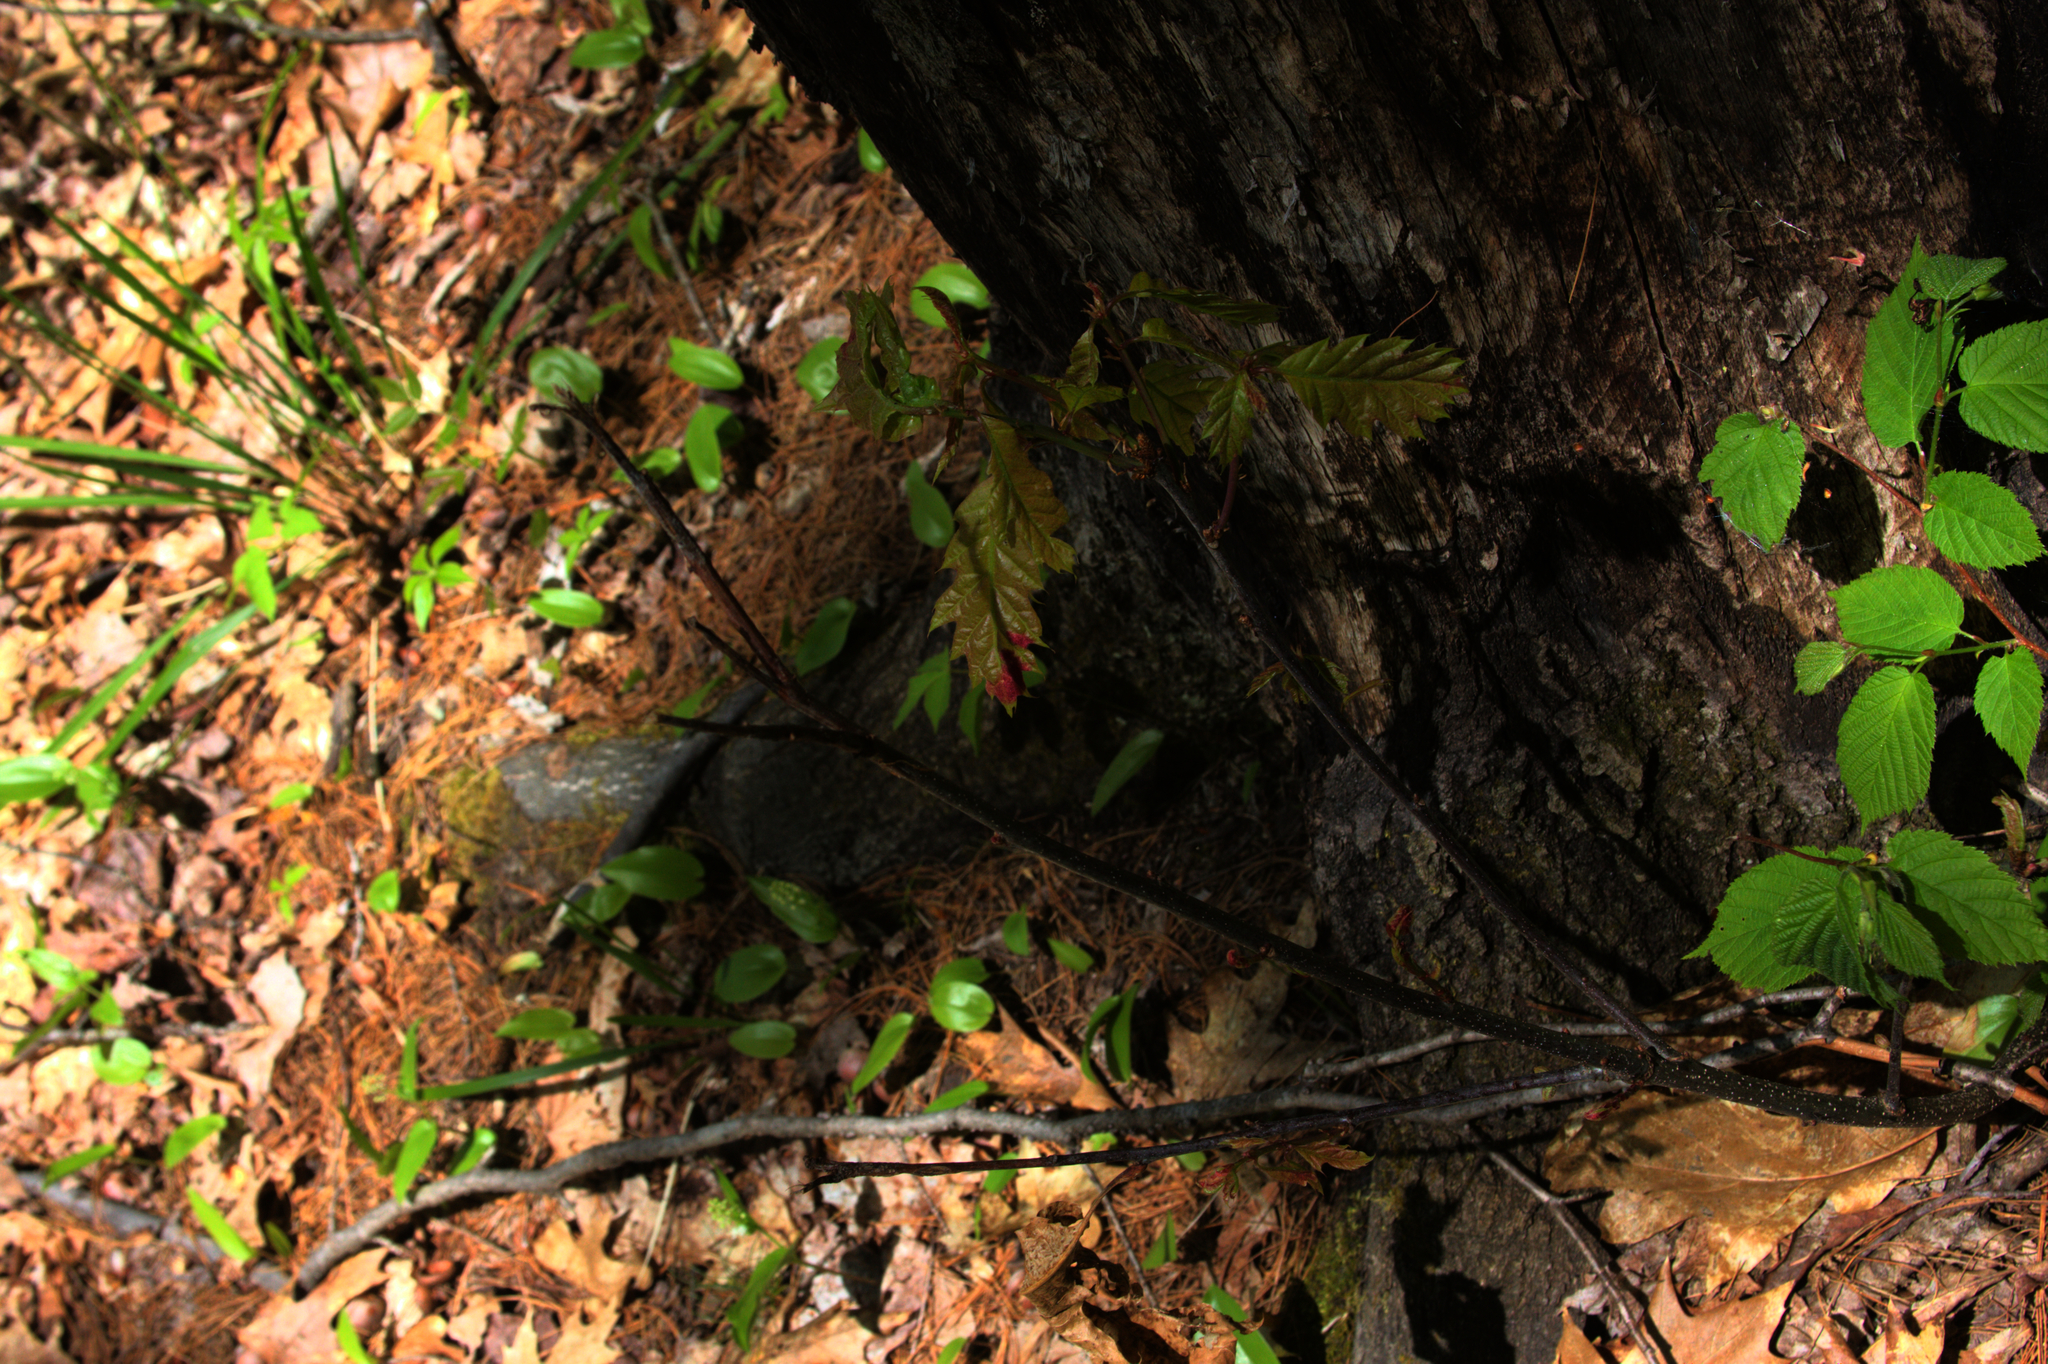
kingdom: Plantae
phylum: Tracheophyta
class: Liliopsida
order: Asparagales
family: Asparagaceae
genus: Maianthemum
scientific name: Maianthemum canadense
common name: False lily-of-the-valley
